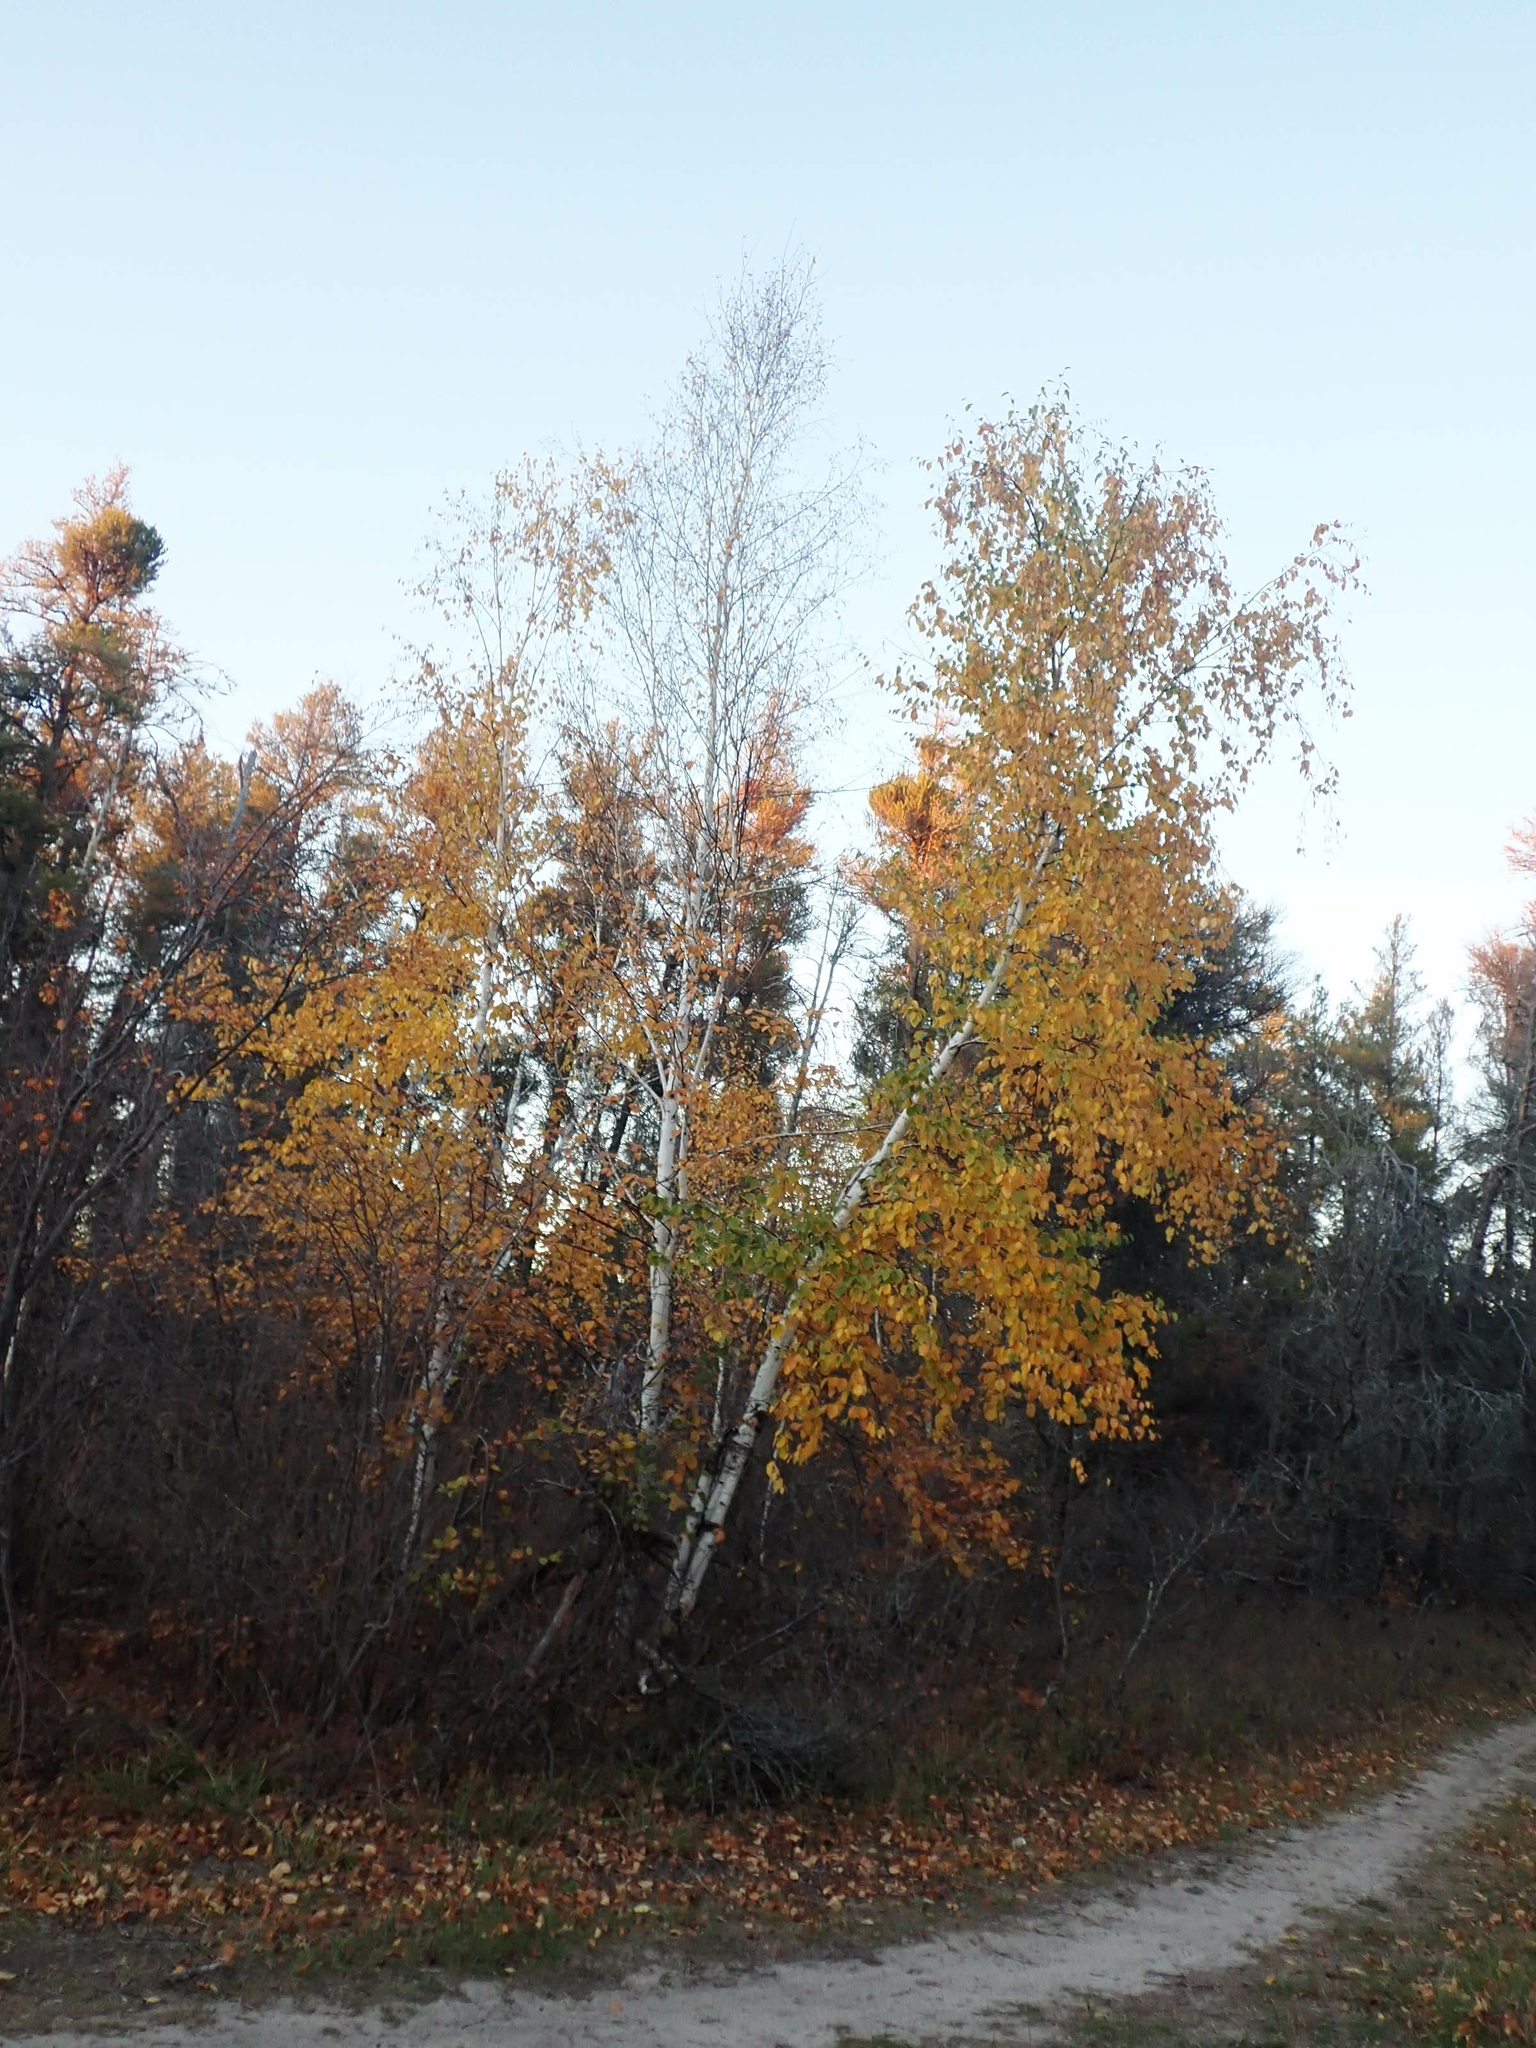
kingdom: Plantae
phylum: Tracheophyta
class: Magnoliopsida
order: Fagales
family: Betulaceae
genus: Betula
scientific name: Betula papyrifera
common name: Paper birch
